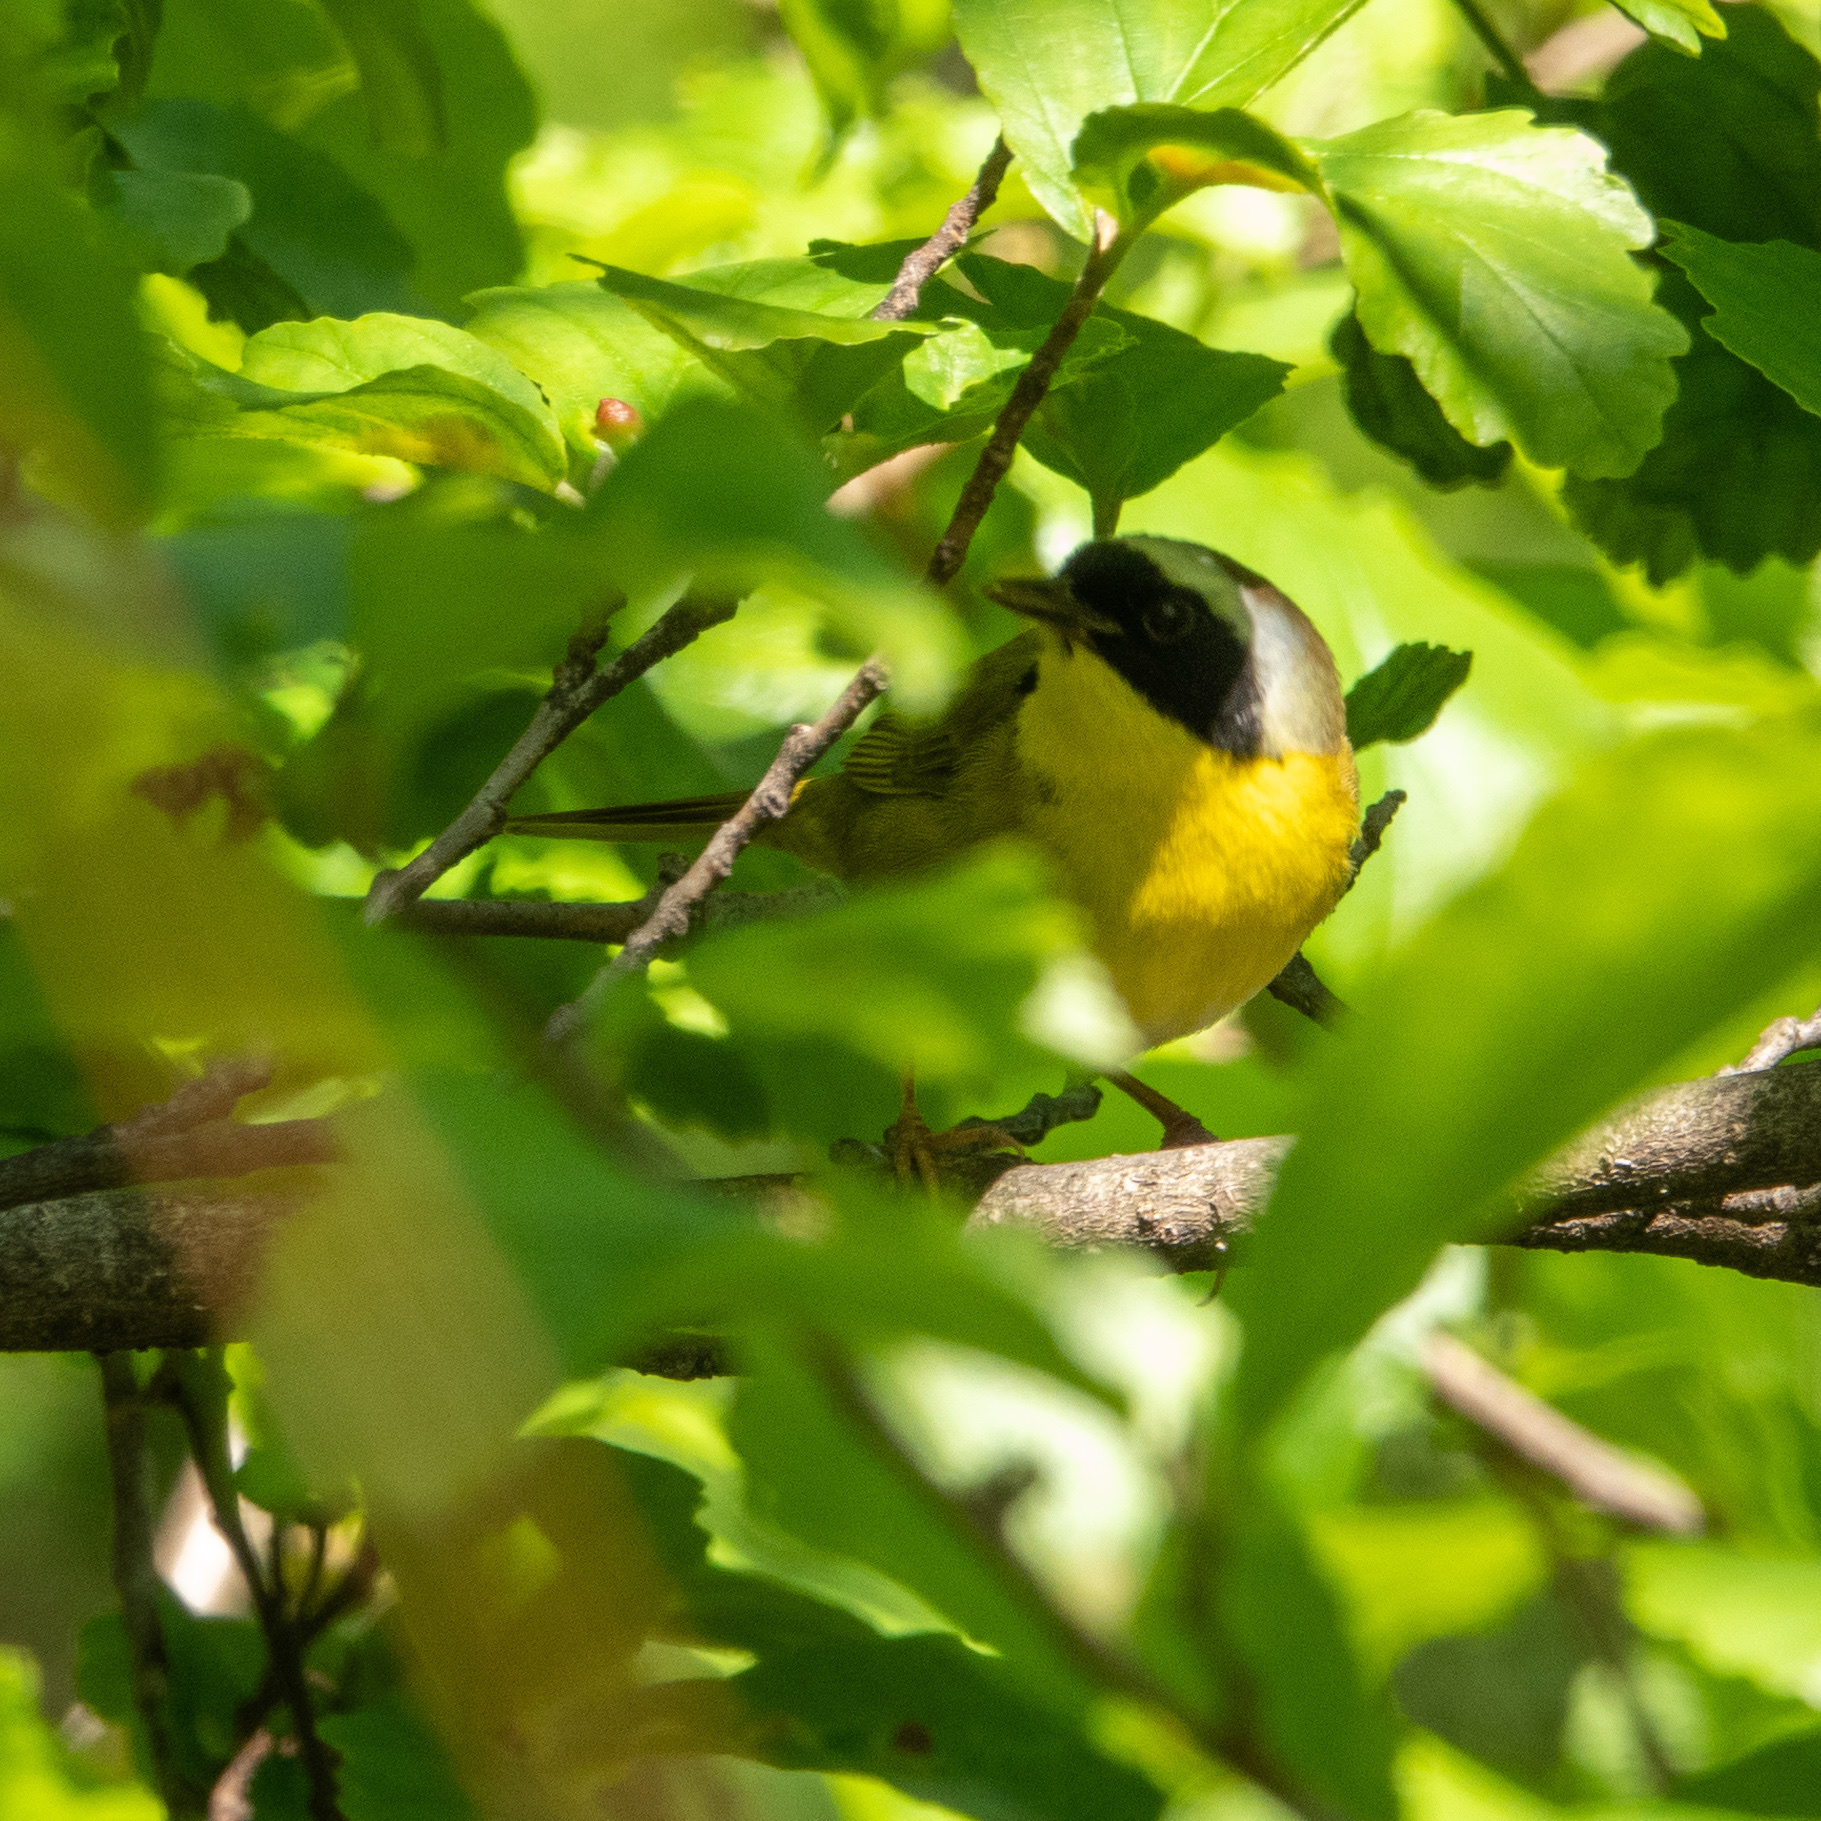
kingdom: Animalia
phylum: Chordata
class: Aves
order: Passeriformes
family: Parulidae
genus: Geothlypis
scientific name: Geothlypis trichas
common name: Common yellowthroat
